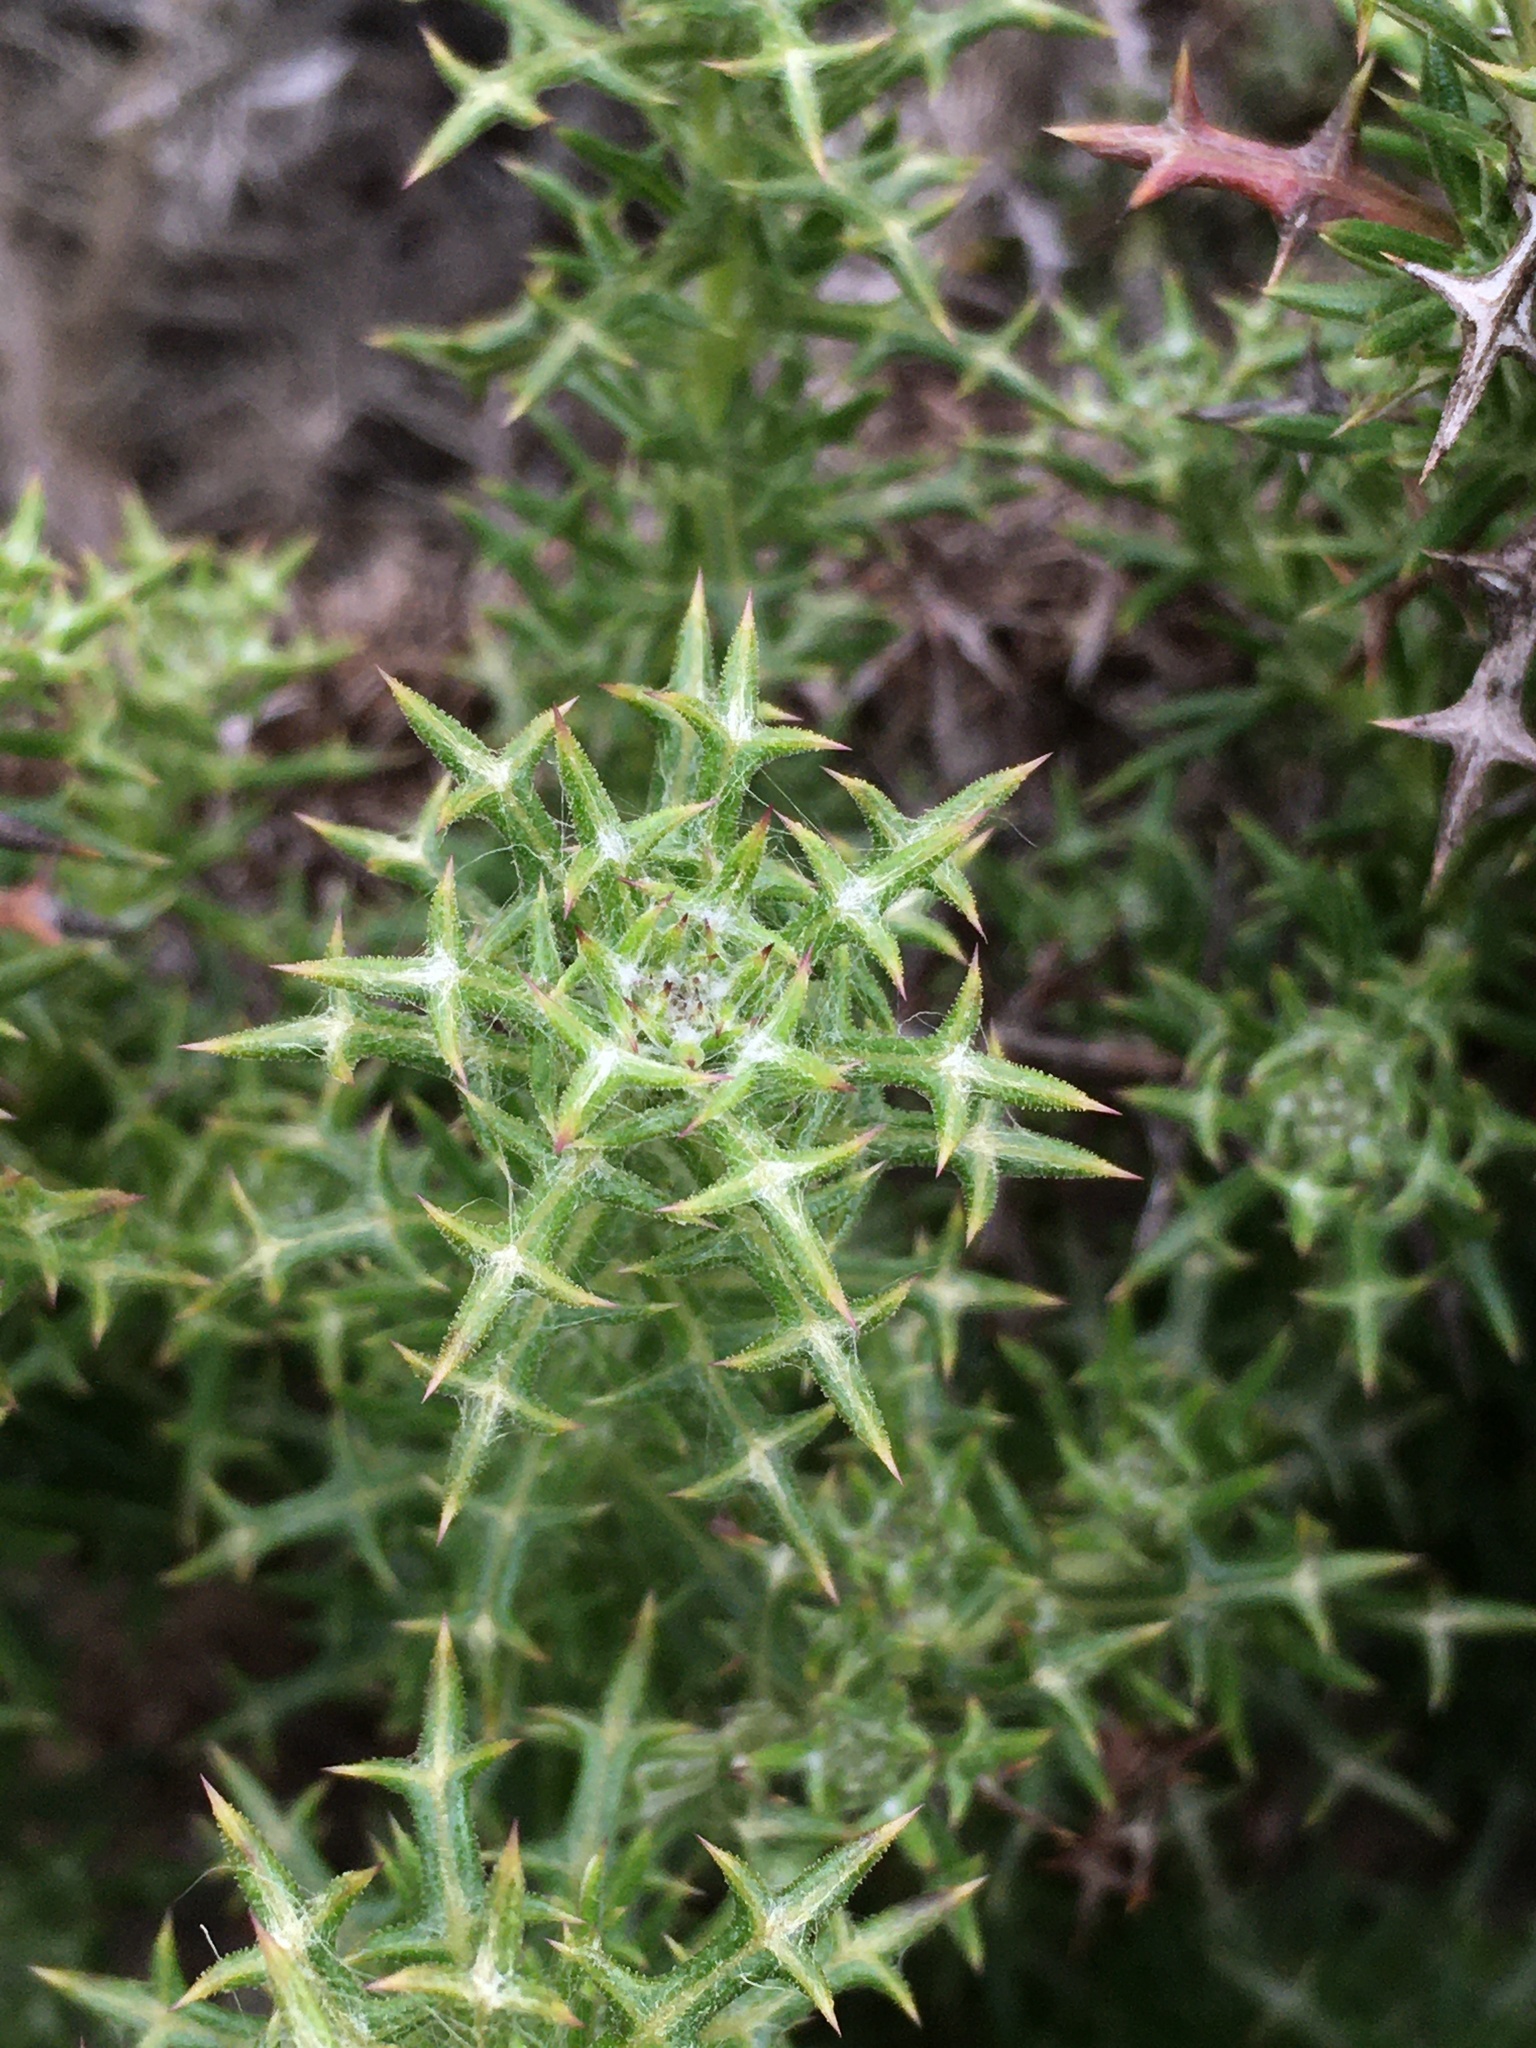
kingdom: Plantae
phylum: Tracheophyta
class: Magnoliopsida
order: Asterales
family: Asteraceae
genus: Oxyphyllum
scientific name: Oxyphyllum ulicinum
